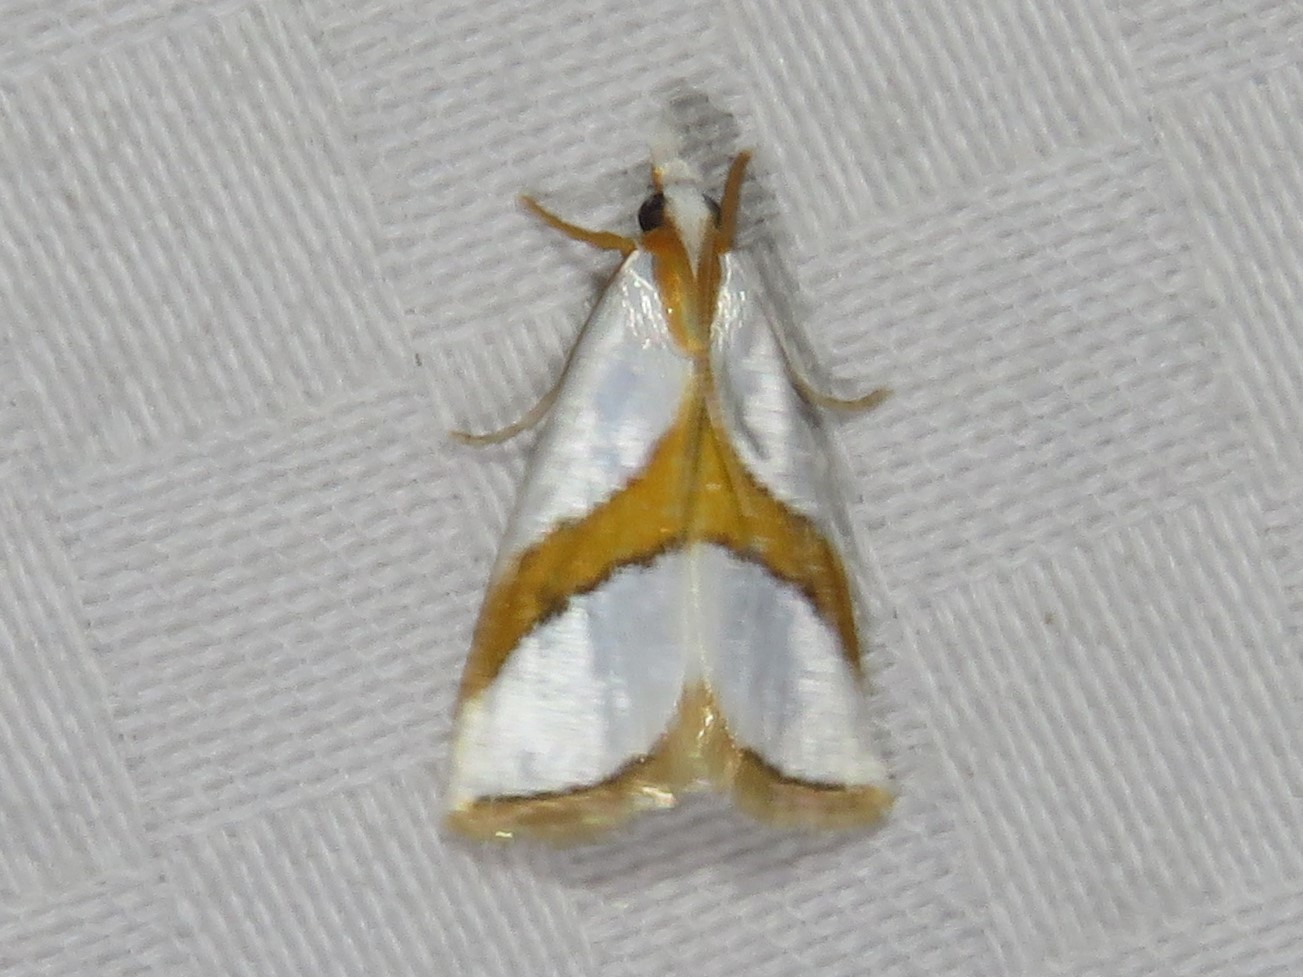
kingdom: Animalia
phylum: Arthropoda
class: Insecta
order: Lepidoptera
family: Crambidae
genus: Vaxi
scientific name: Vaxi critica
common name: Straight-lined vaxi moth
